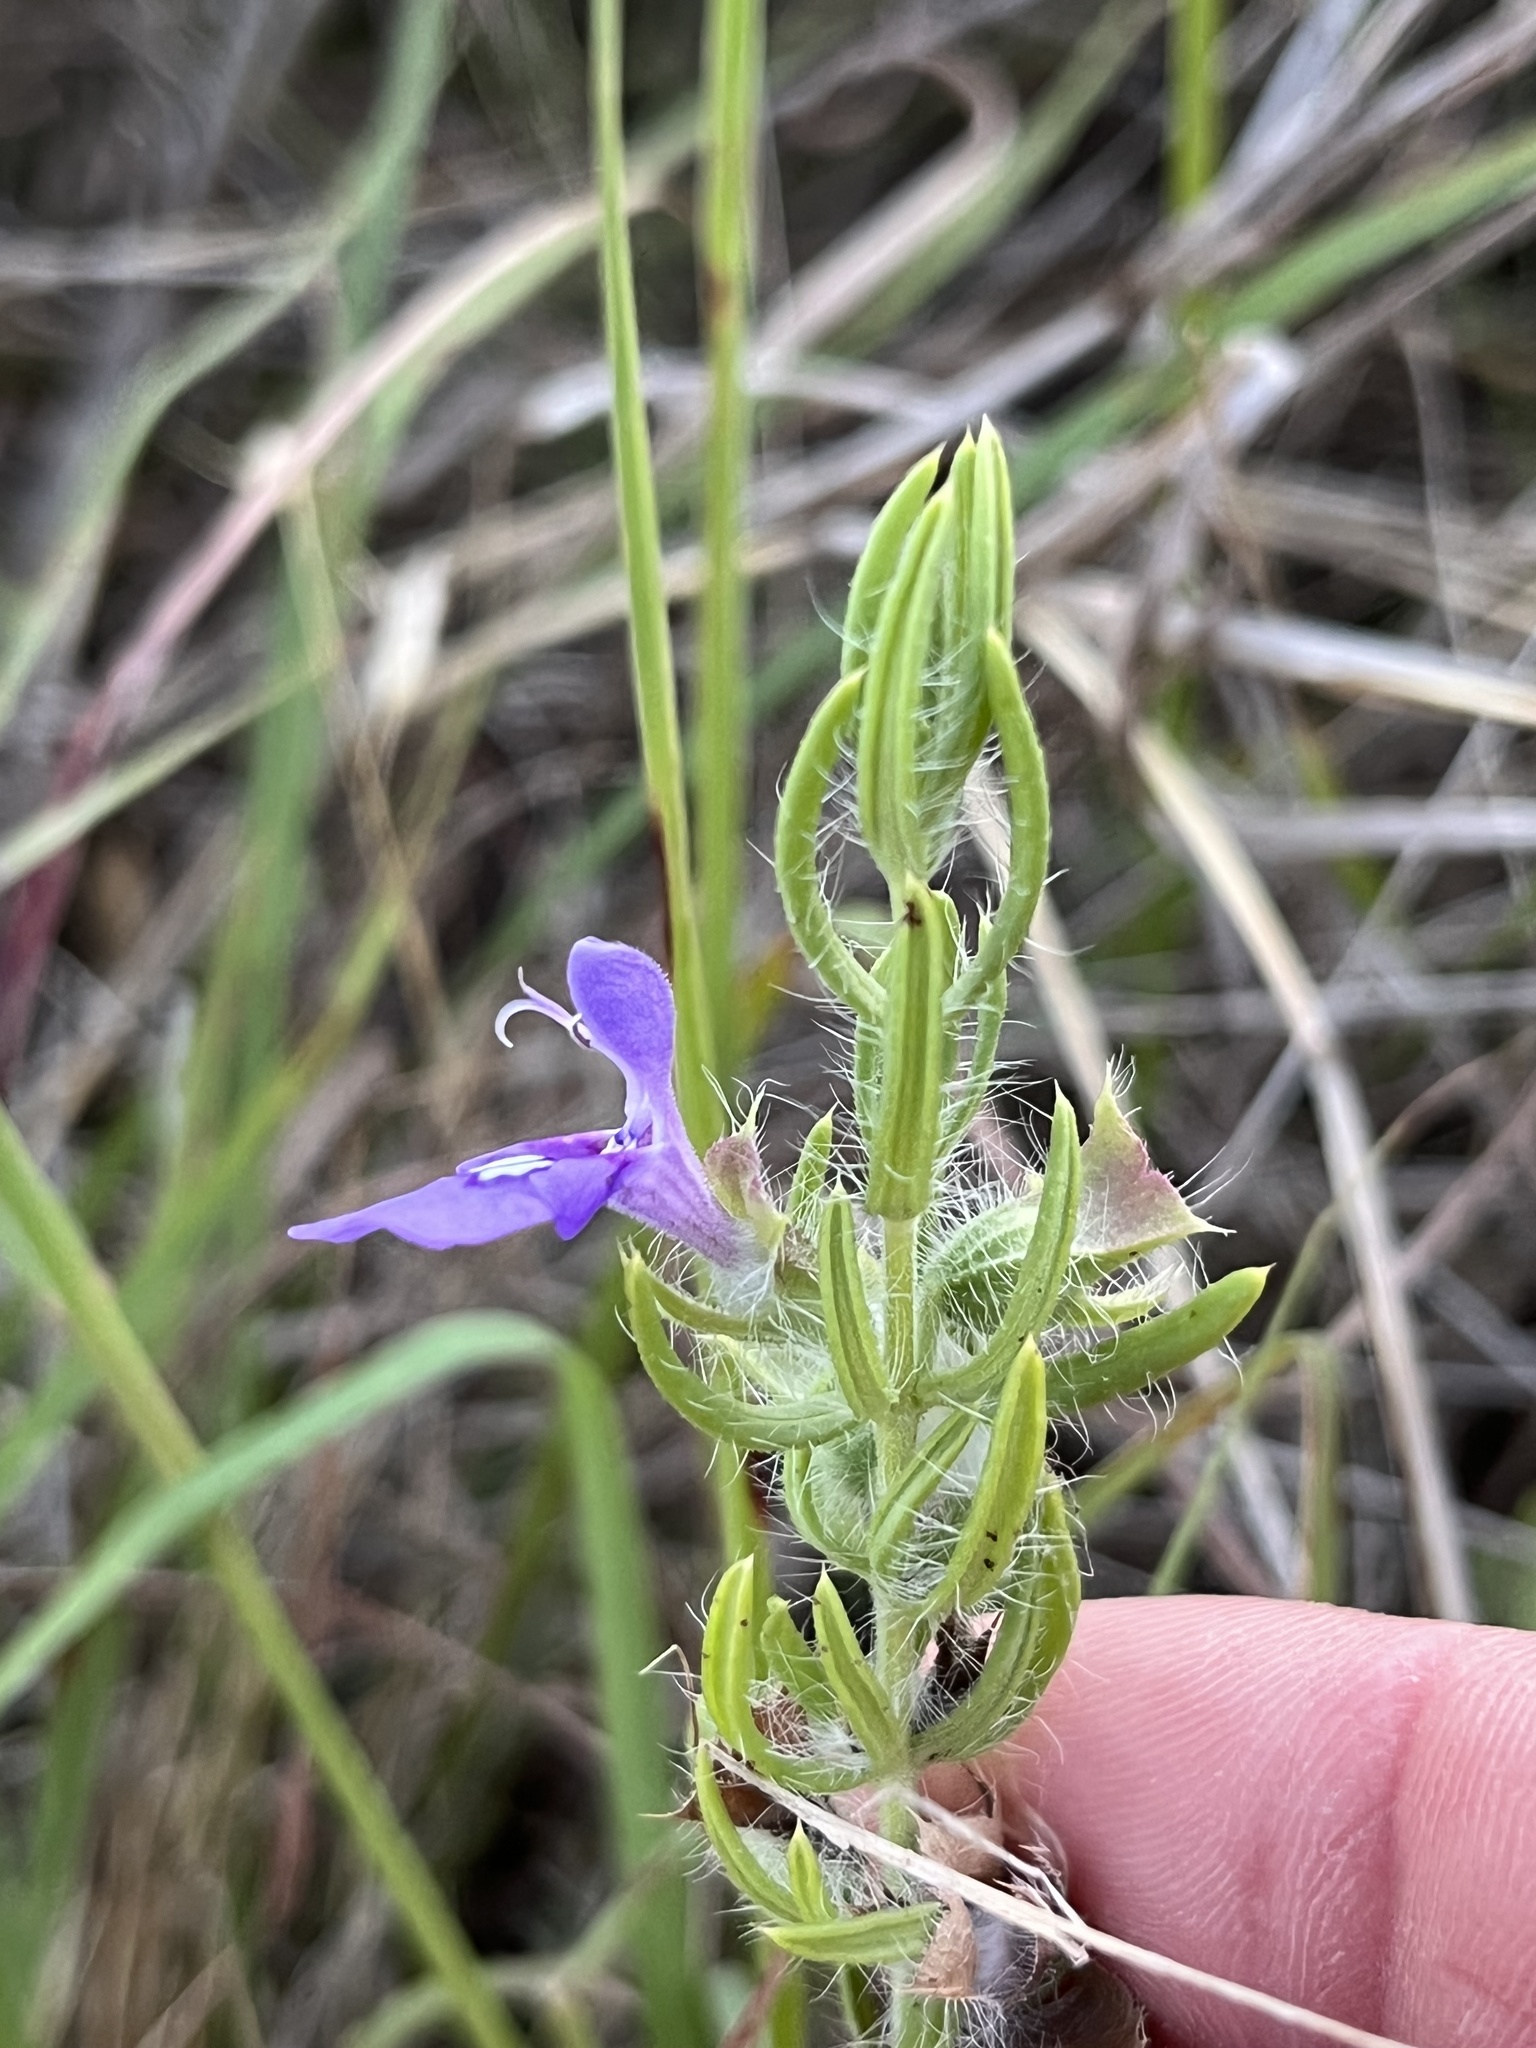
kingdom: Plantae
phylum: Tracheophyta
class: Magnoliopsida
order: Lamiales
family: Lamiaceae
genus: Salvia
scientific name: Salvia texana
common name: Texas sage
